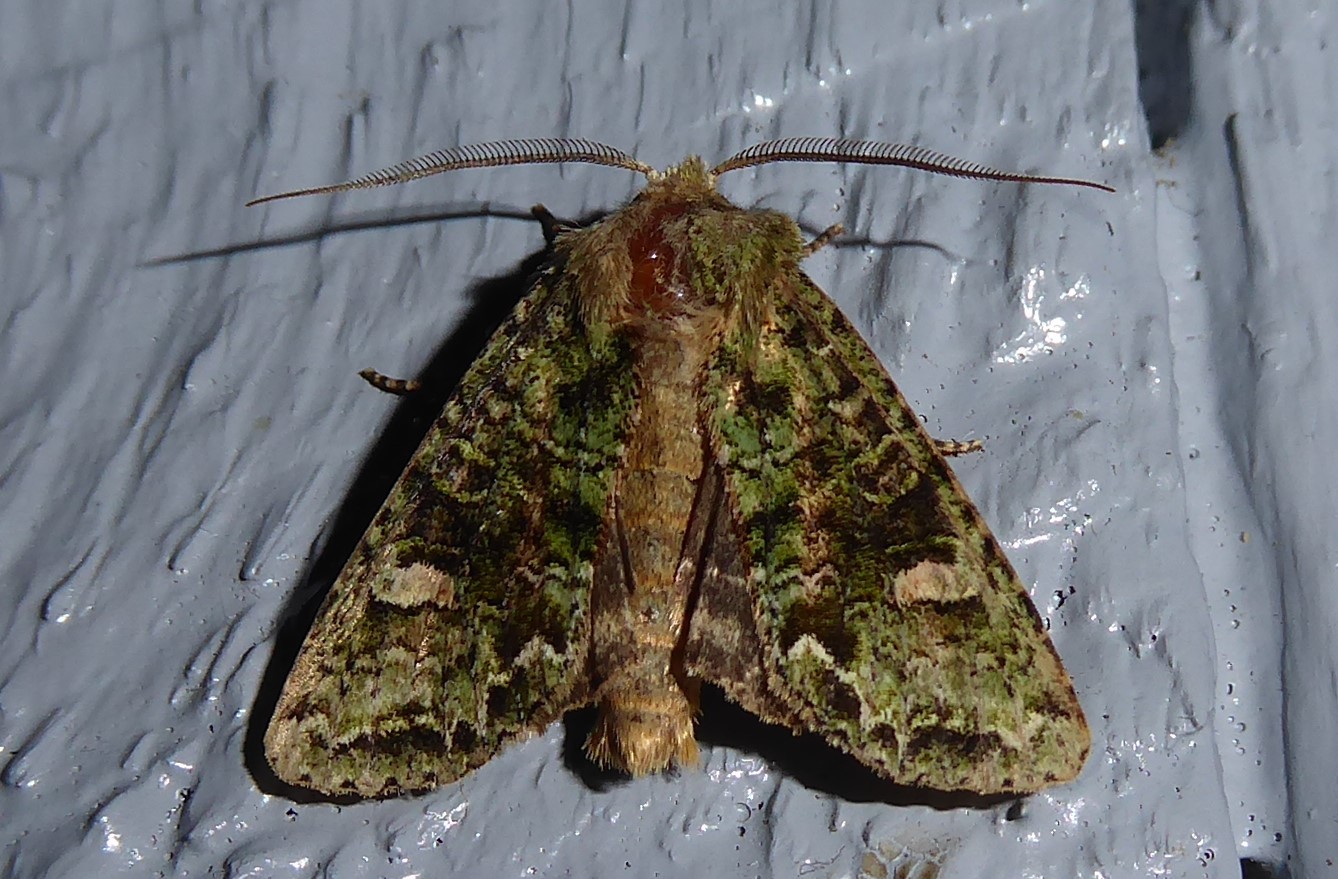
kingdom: Animalia
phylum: Arthropoda
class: Insecta
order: Lepidoptera
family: Noctuidae
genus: Ichneutica
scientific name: Ichneutica
